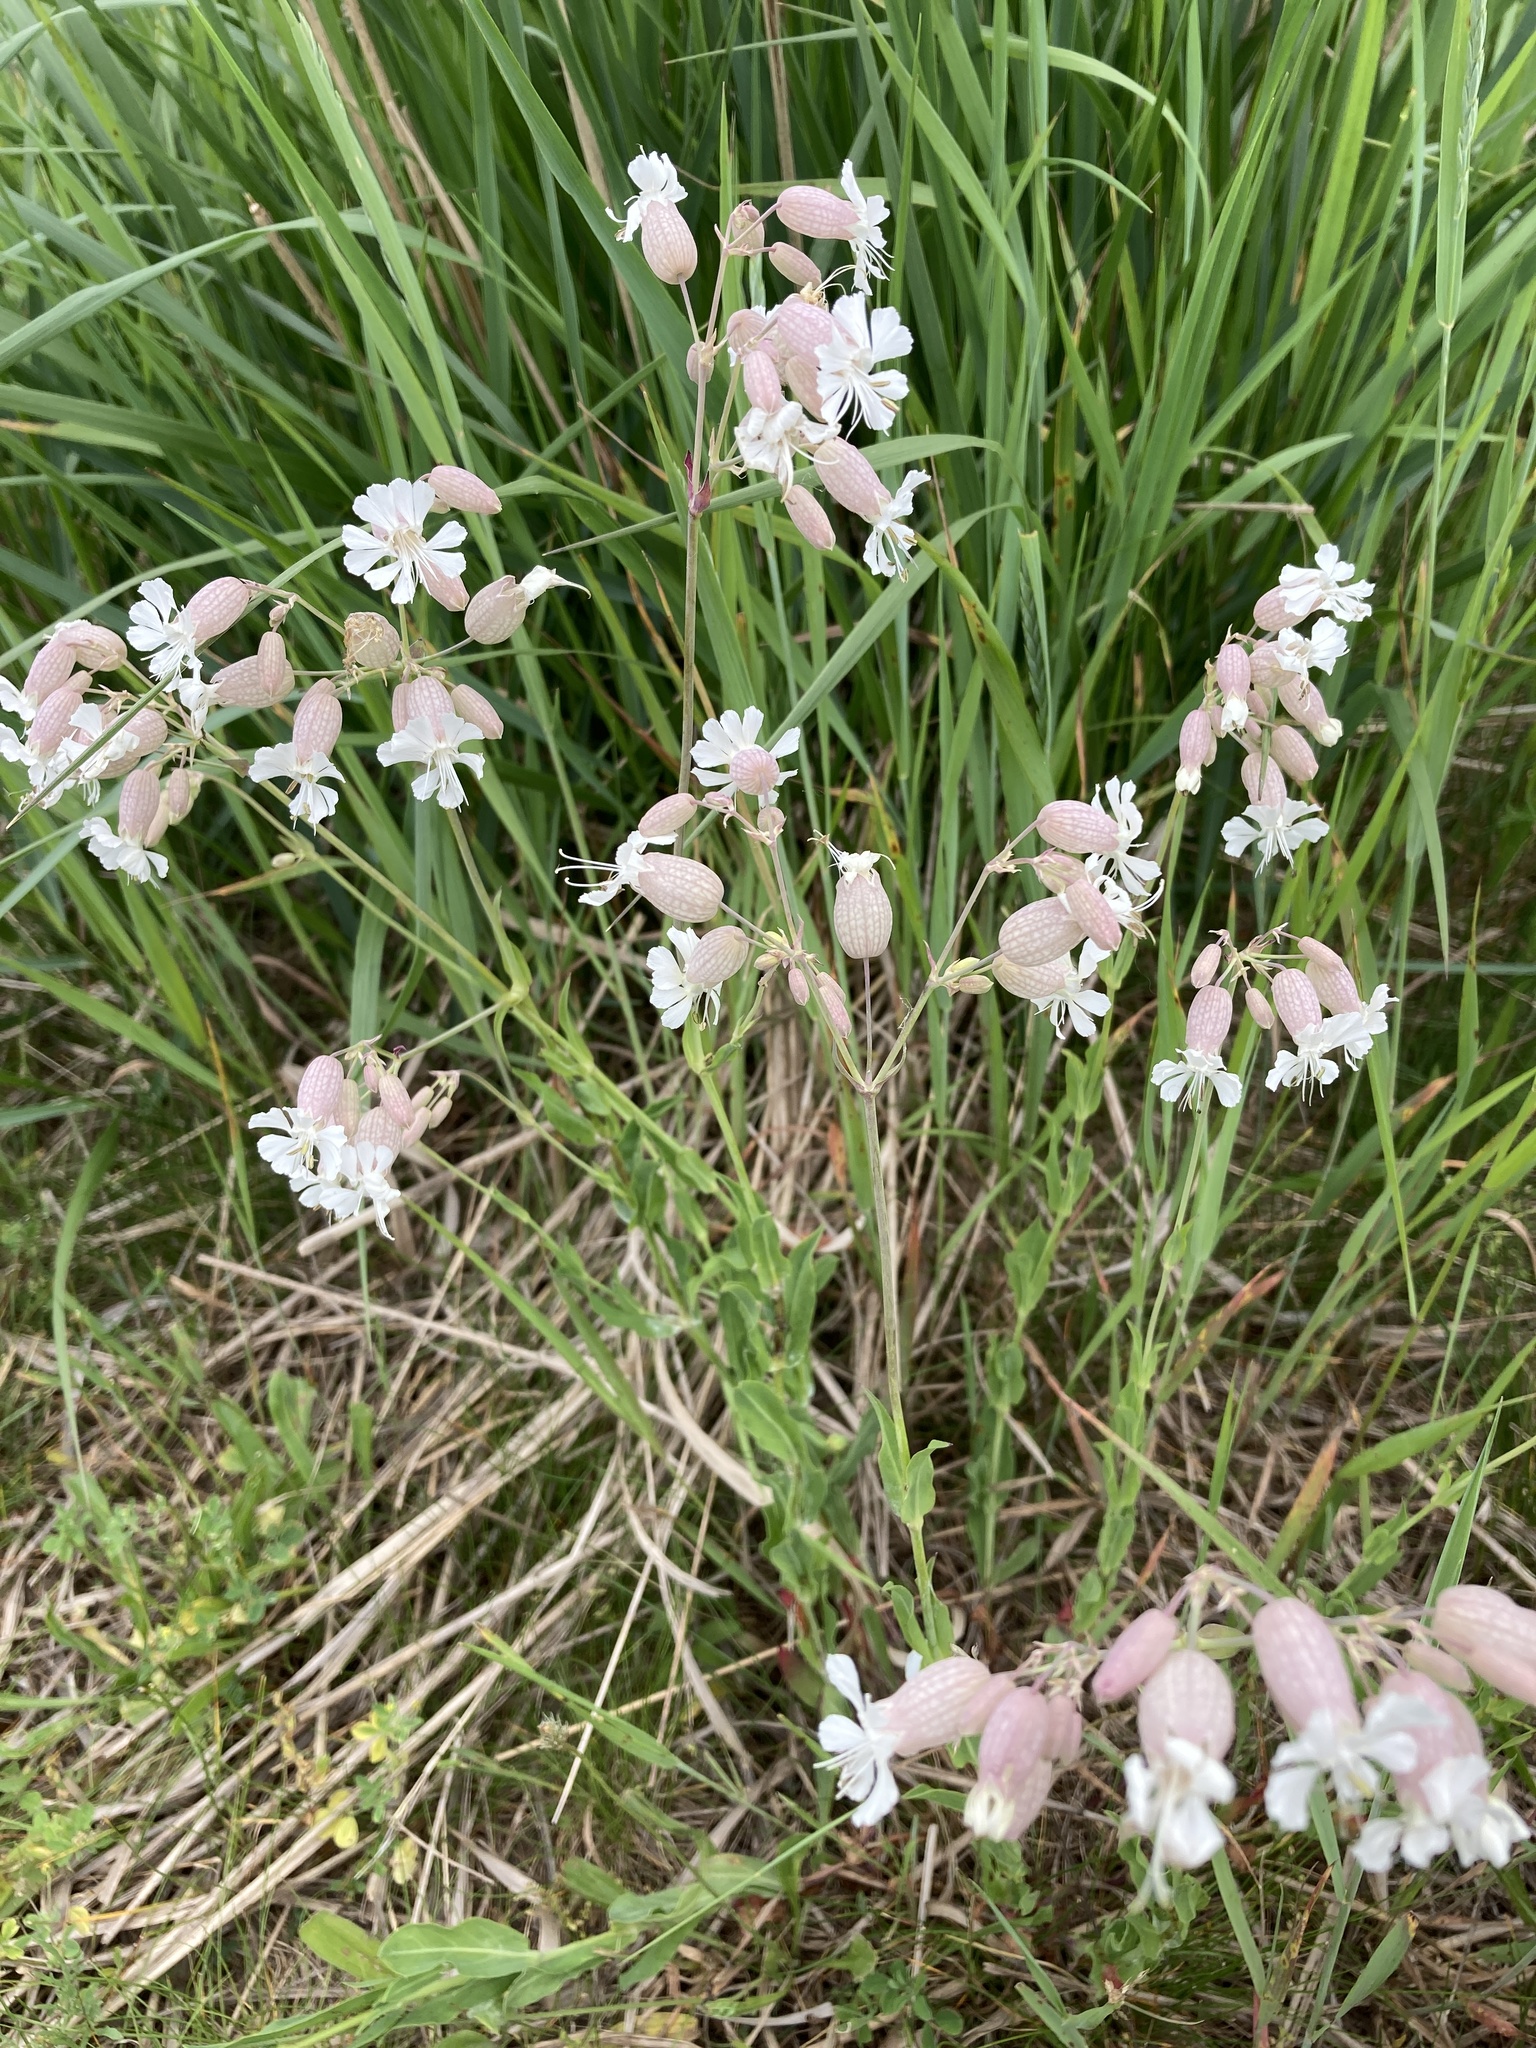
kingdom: Plantae
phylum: Tracheophyta
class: Magnoliopsida
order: Caryophyllales
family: Caryophyllaceae
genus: Silene
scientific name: Silene vulgaris
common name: Bladder campion
